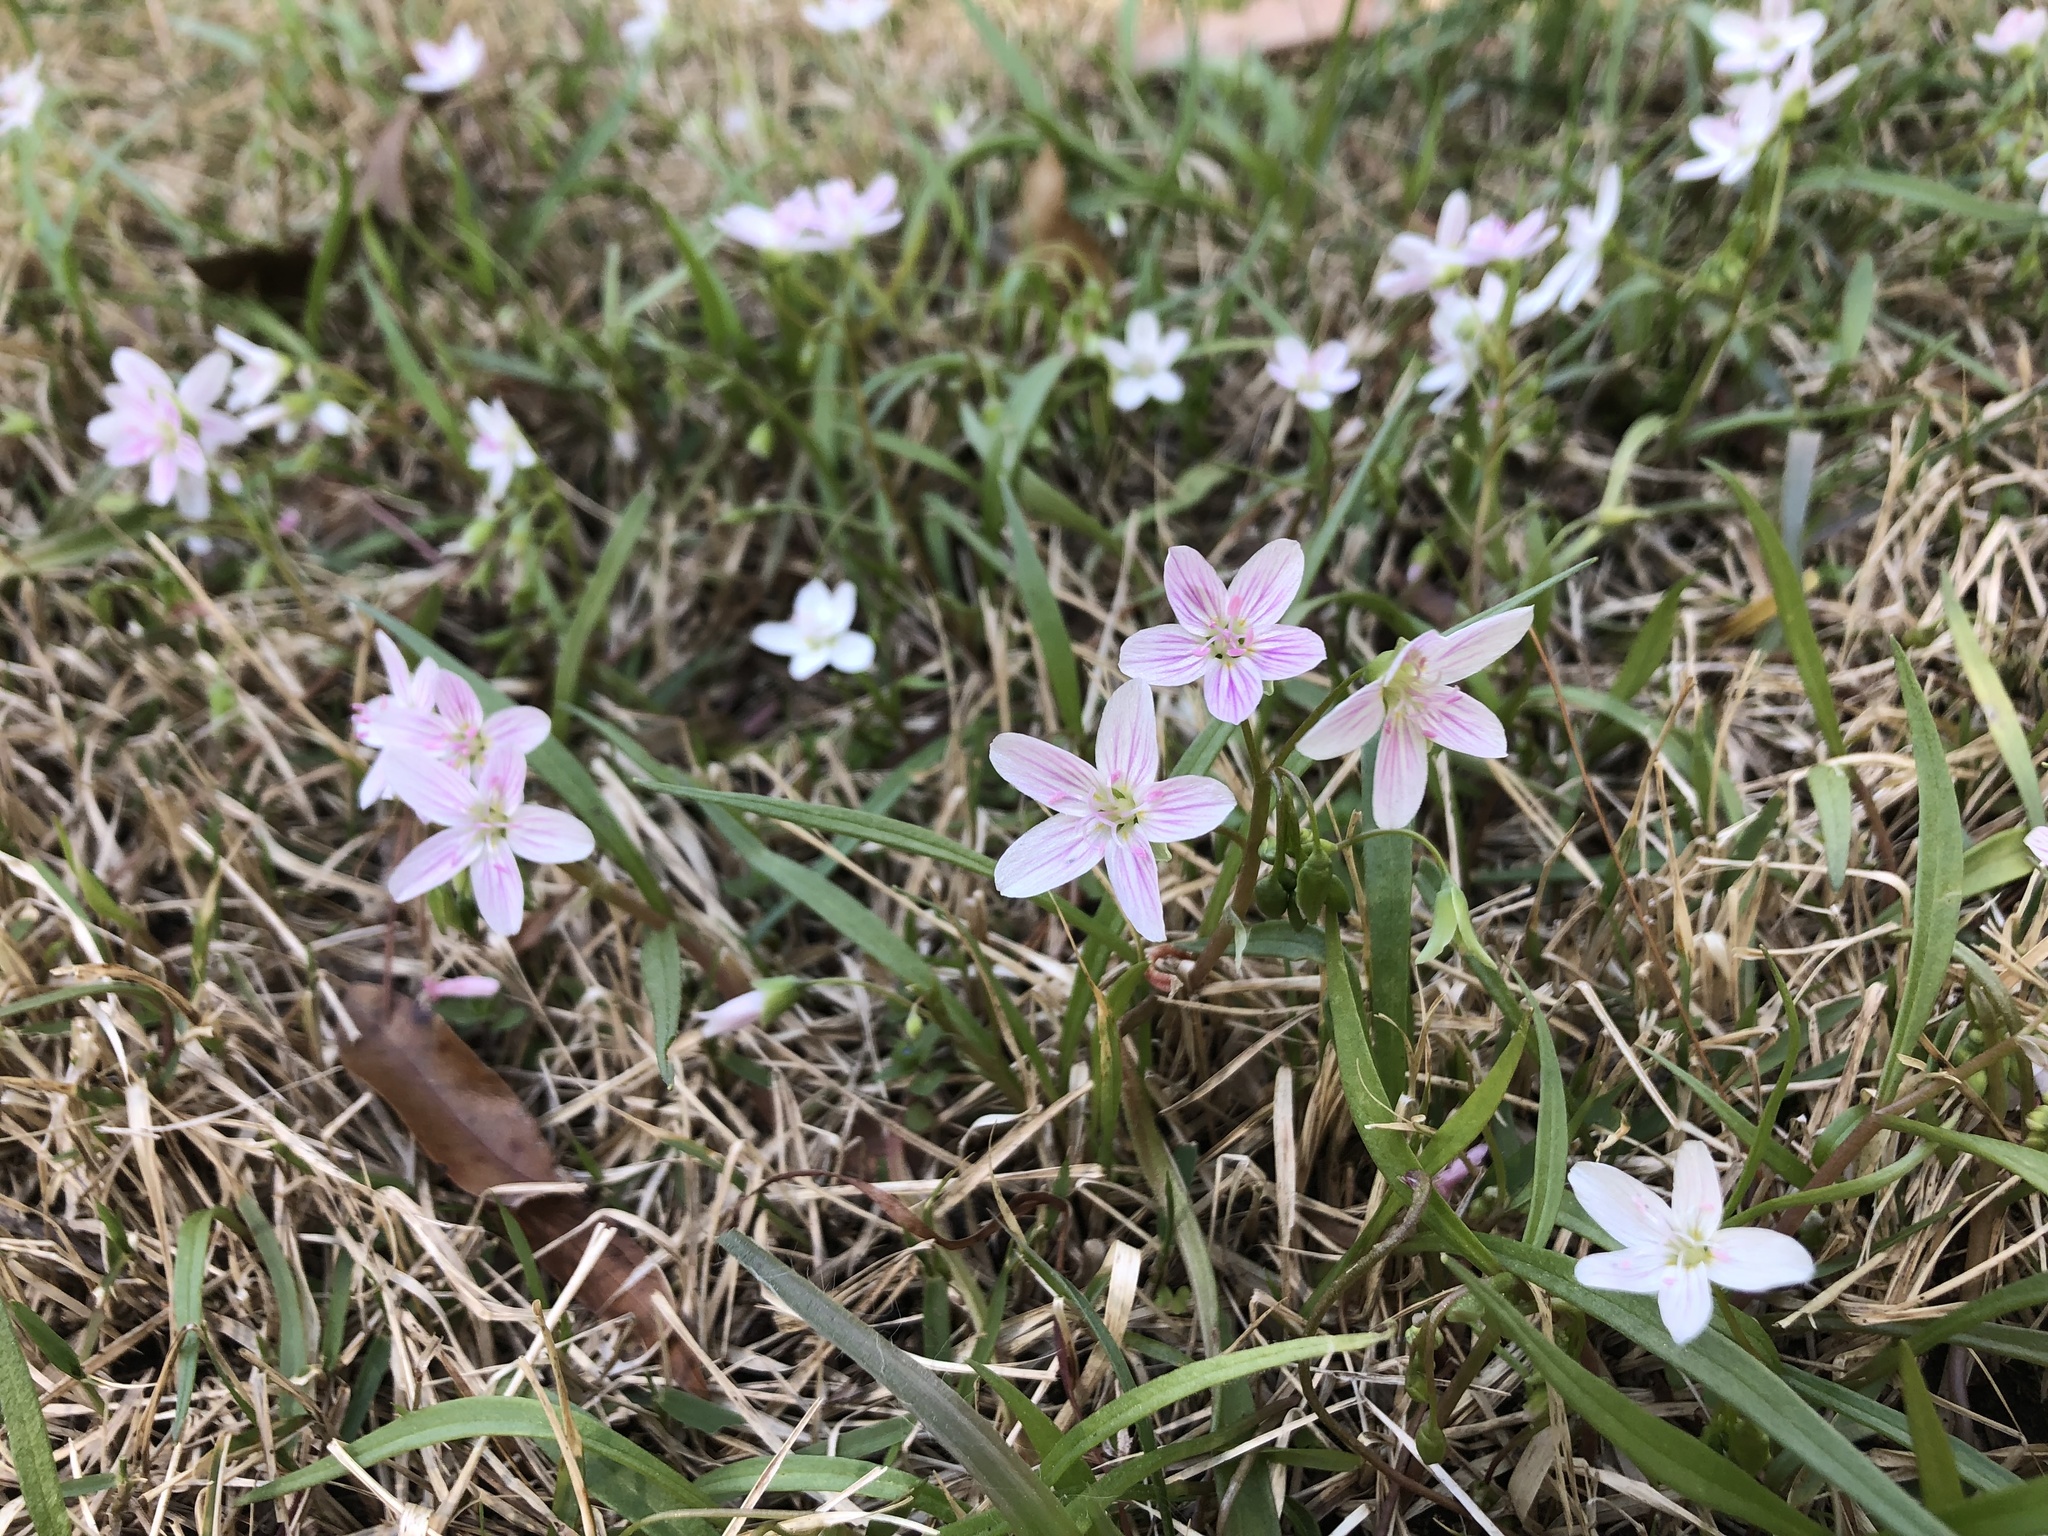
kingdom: Plantae
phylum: Tracheophyta
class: Magnoliopsida
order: Caryophyllales
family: Montiaceae
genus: Claytonia
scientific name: Claytonia virginica
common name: Virginia springbeauty
